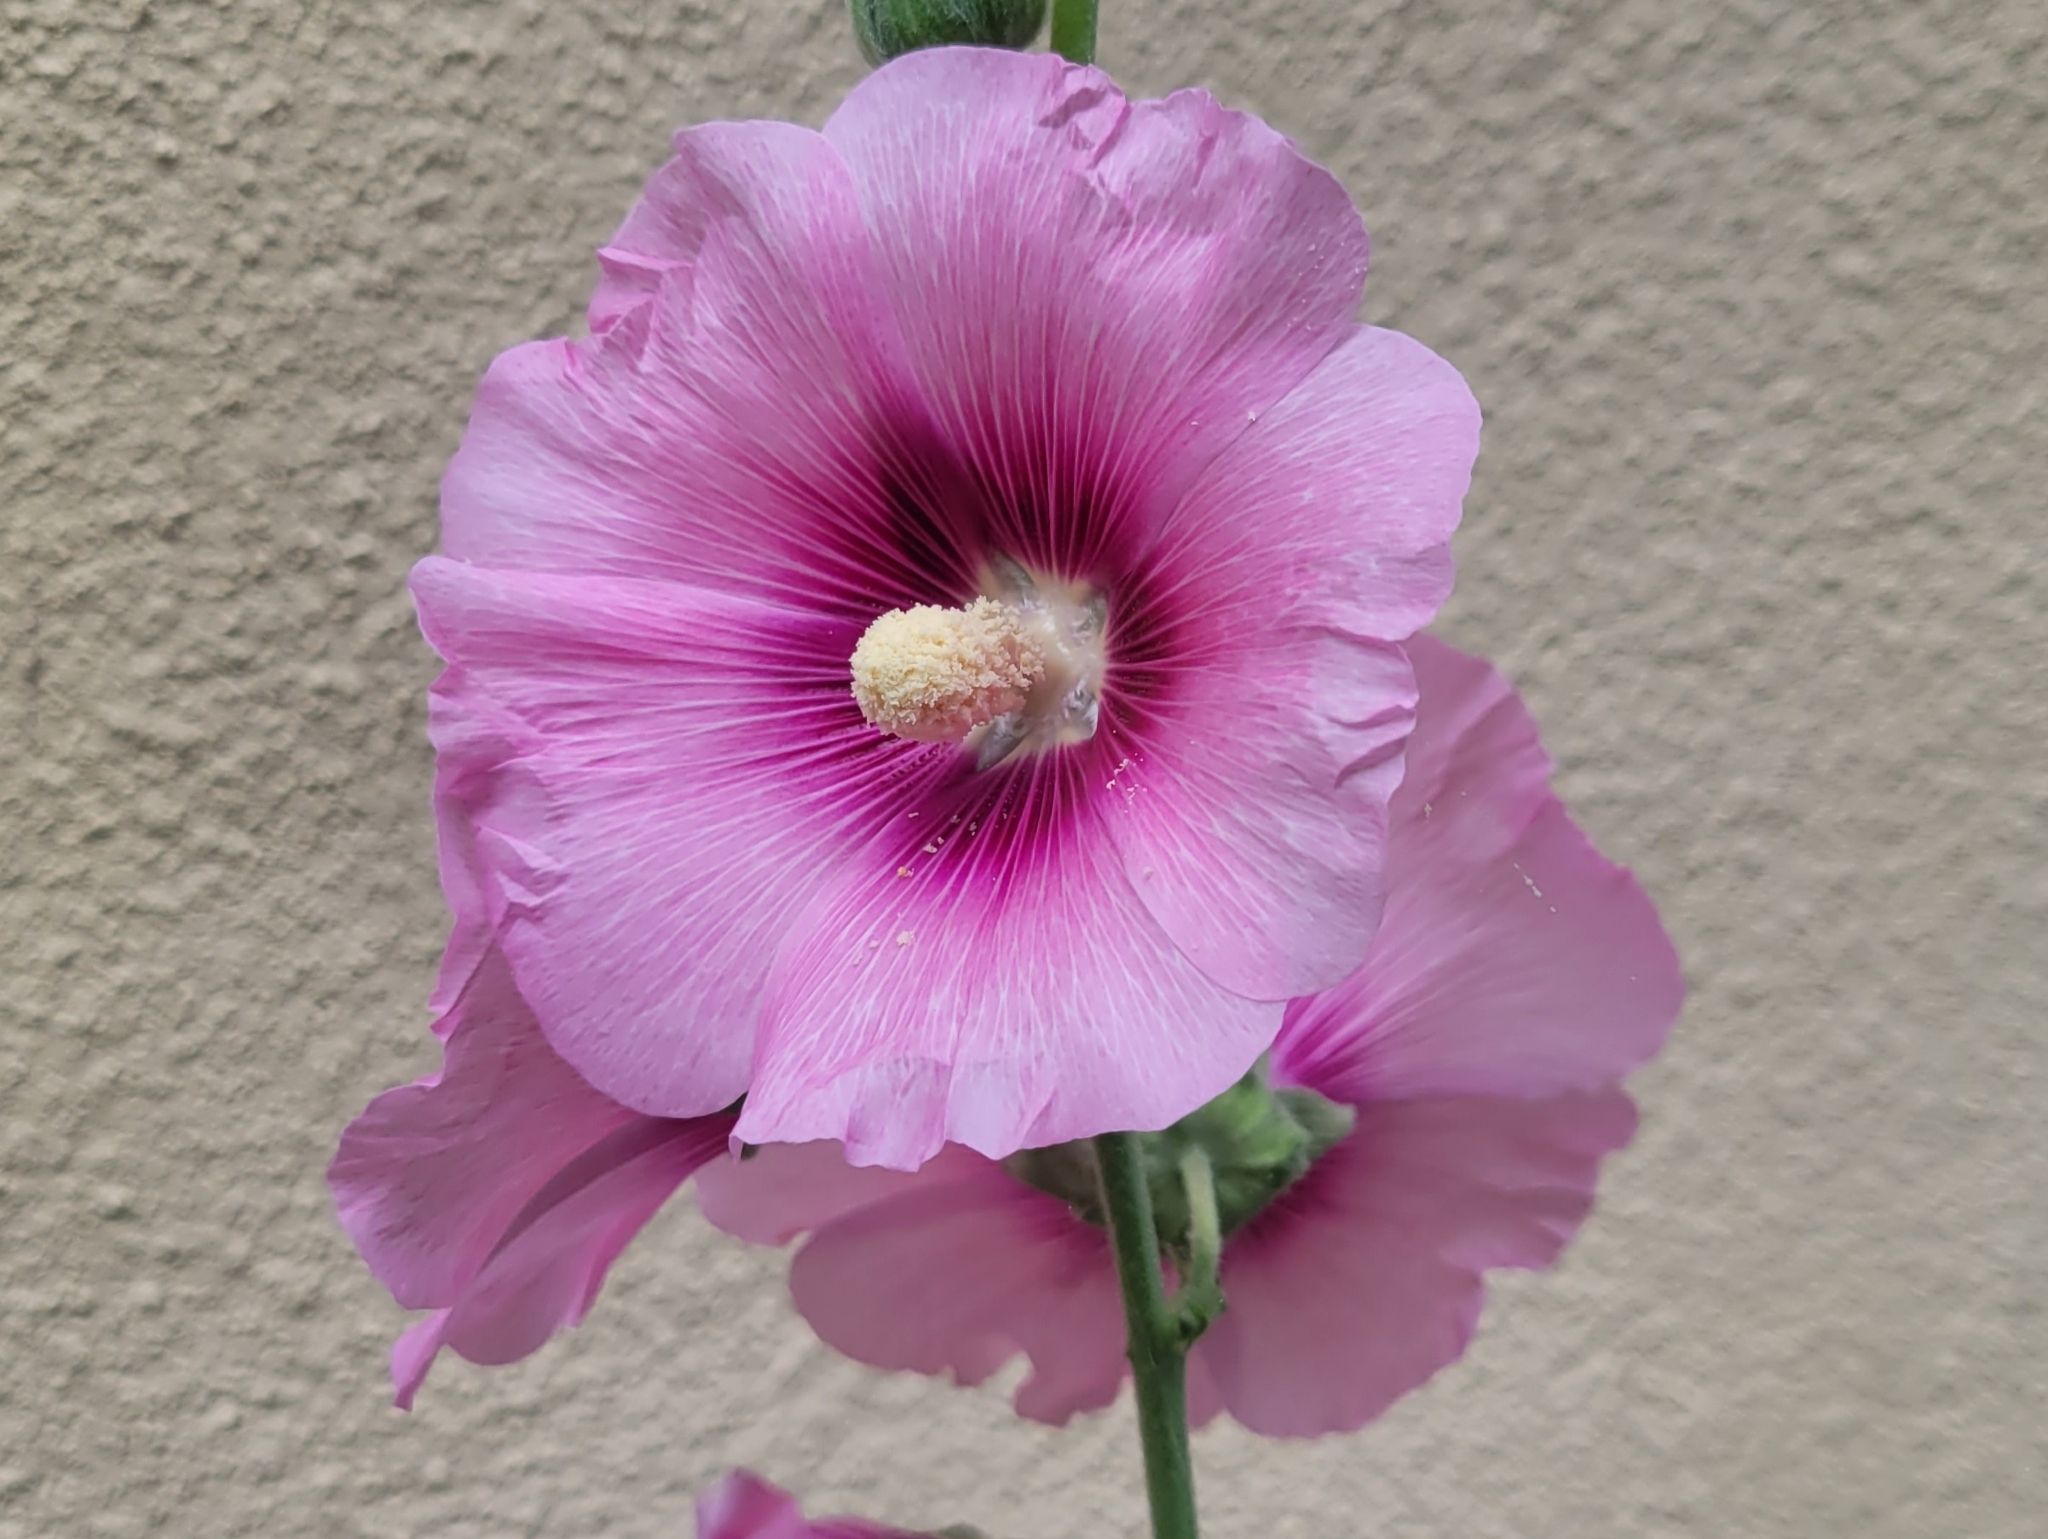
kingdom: Plantae
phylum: Tracheophyta
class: Magnoliopsida
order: Malvales
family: Malvaceae
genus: Alcea
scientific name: Alcea rosea
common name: Hollyhock
